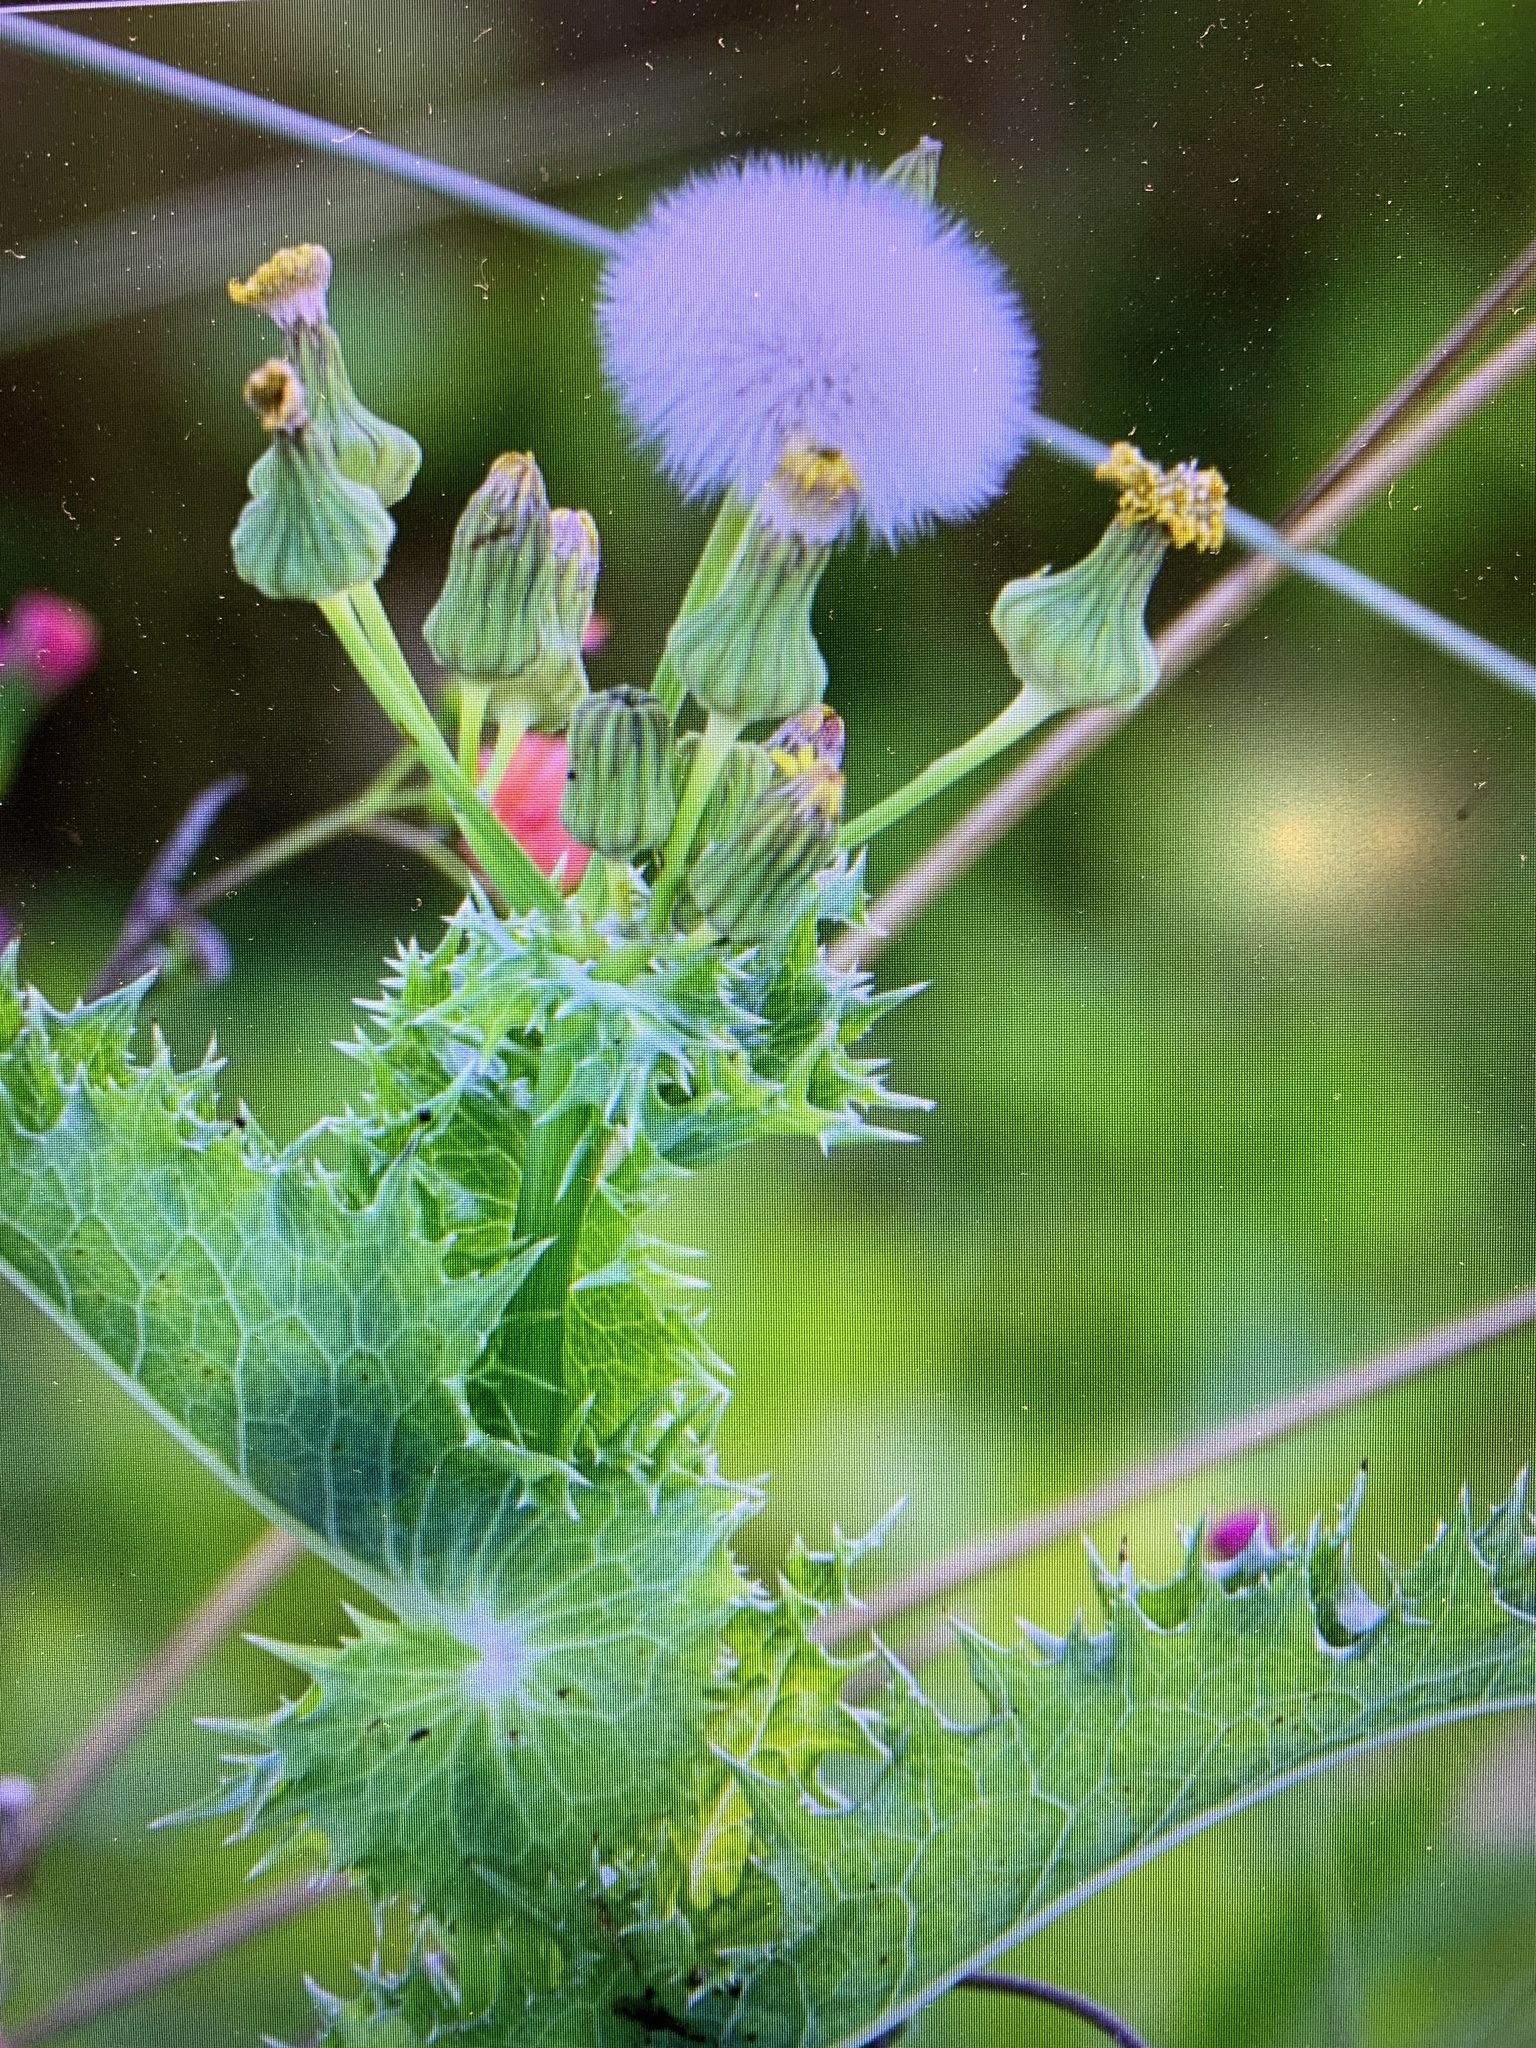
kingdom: Plantae
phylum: Tracheophyta
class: Magnoliopsida
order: Asterales
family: Asteraceae
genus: Sonchus
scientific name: Sonchus asper
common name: Prickly sow-thistle
